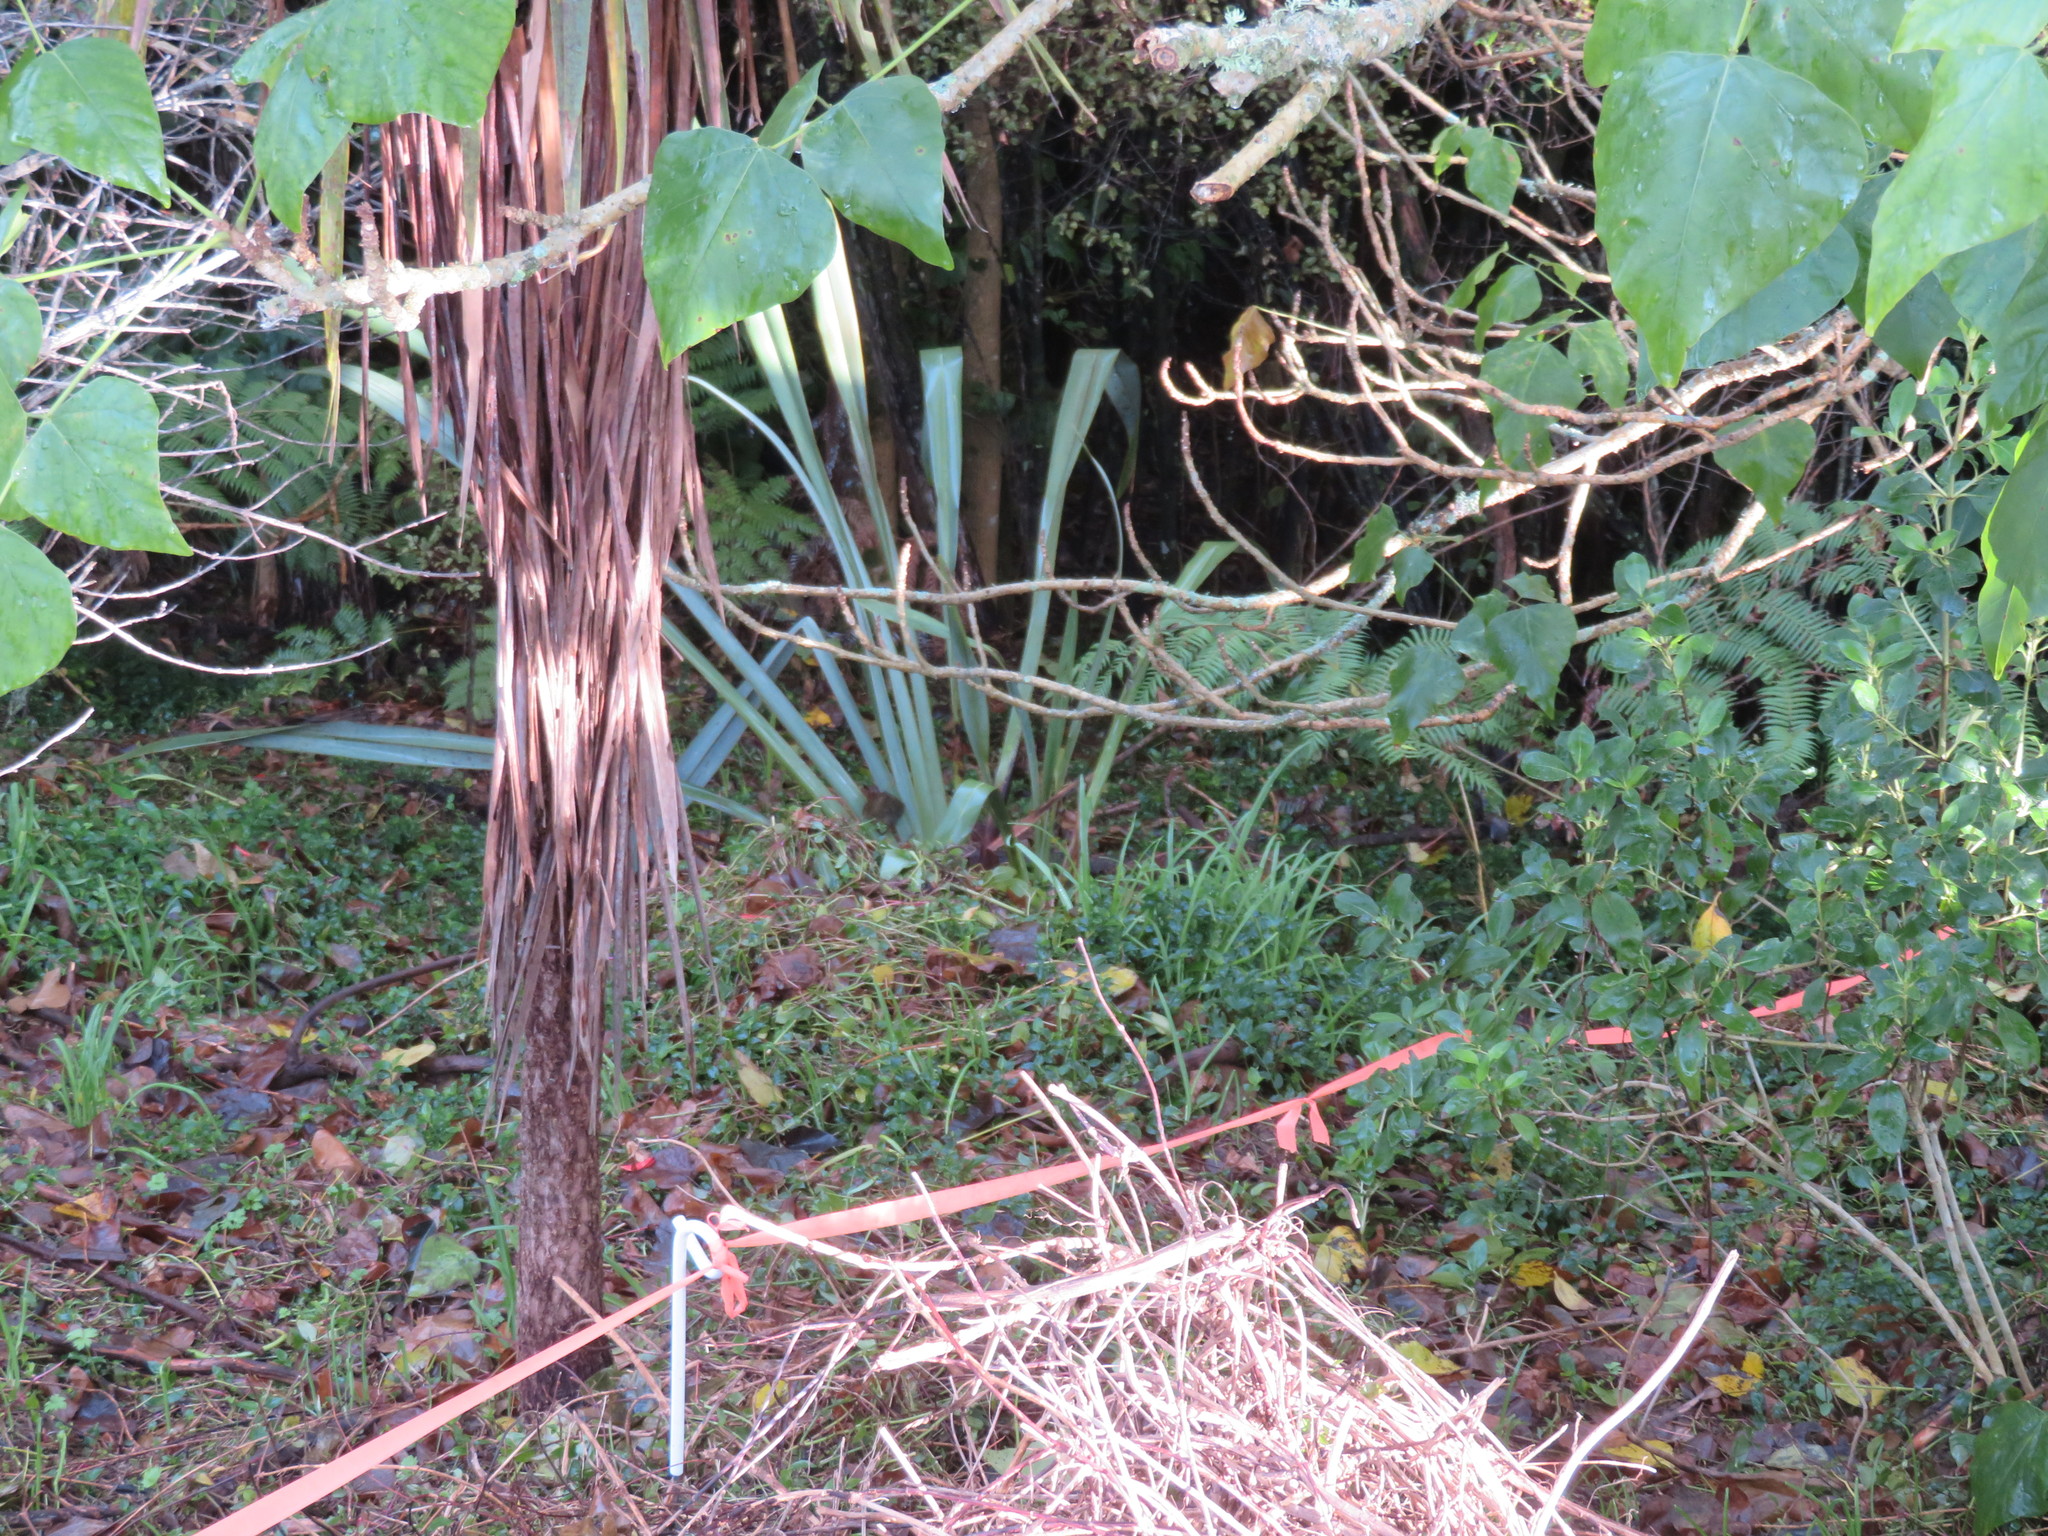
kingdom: Plantae
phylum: Tracheophyta
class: Liliopsida
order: Commelinales
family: Commelinaceae
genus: Tradescantia
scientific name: Tradescantia fluminensis
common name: Wandering-jew
